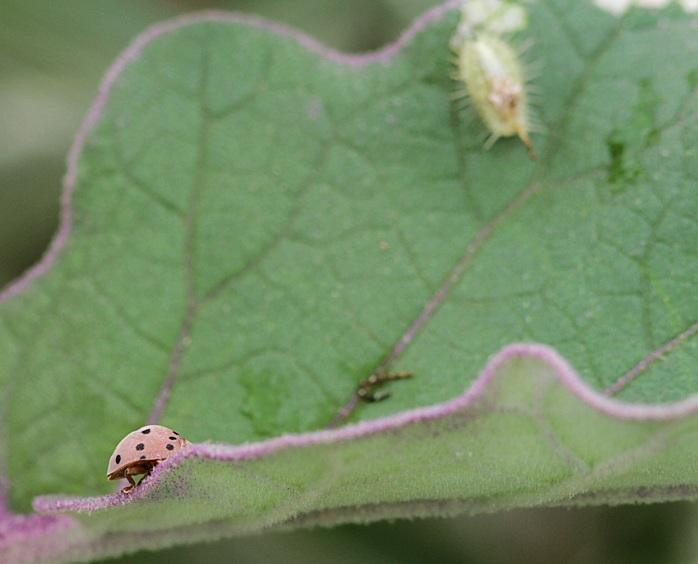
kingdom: Animalia
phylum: Arthropoda
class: Insecta
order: Coleoptera
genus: Solanophila
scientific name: Solanophila
